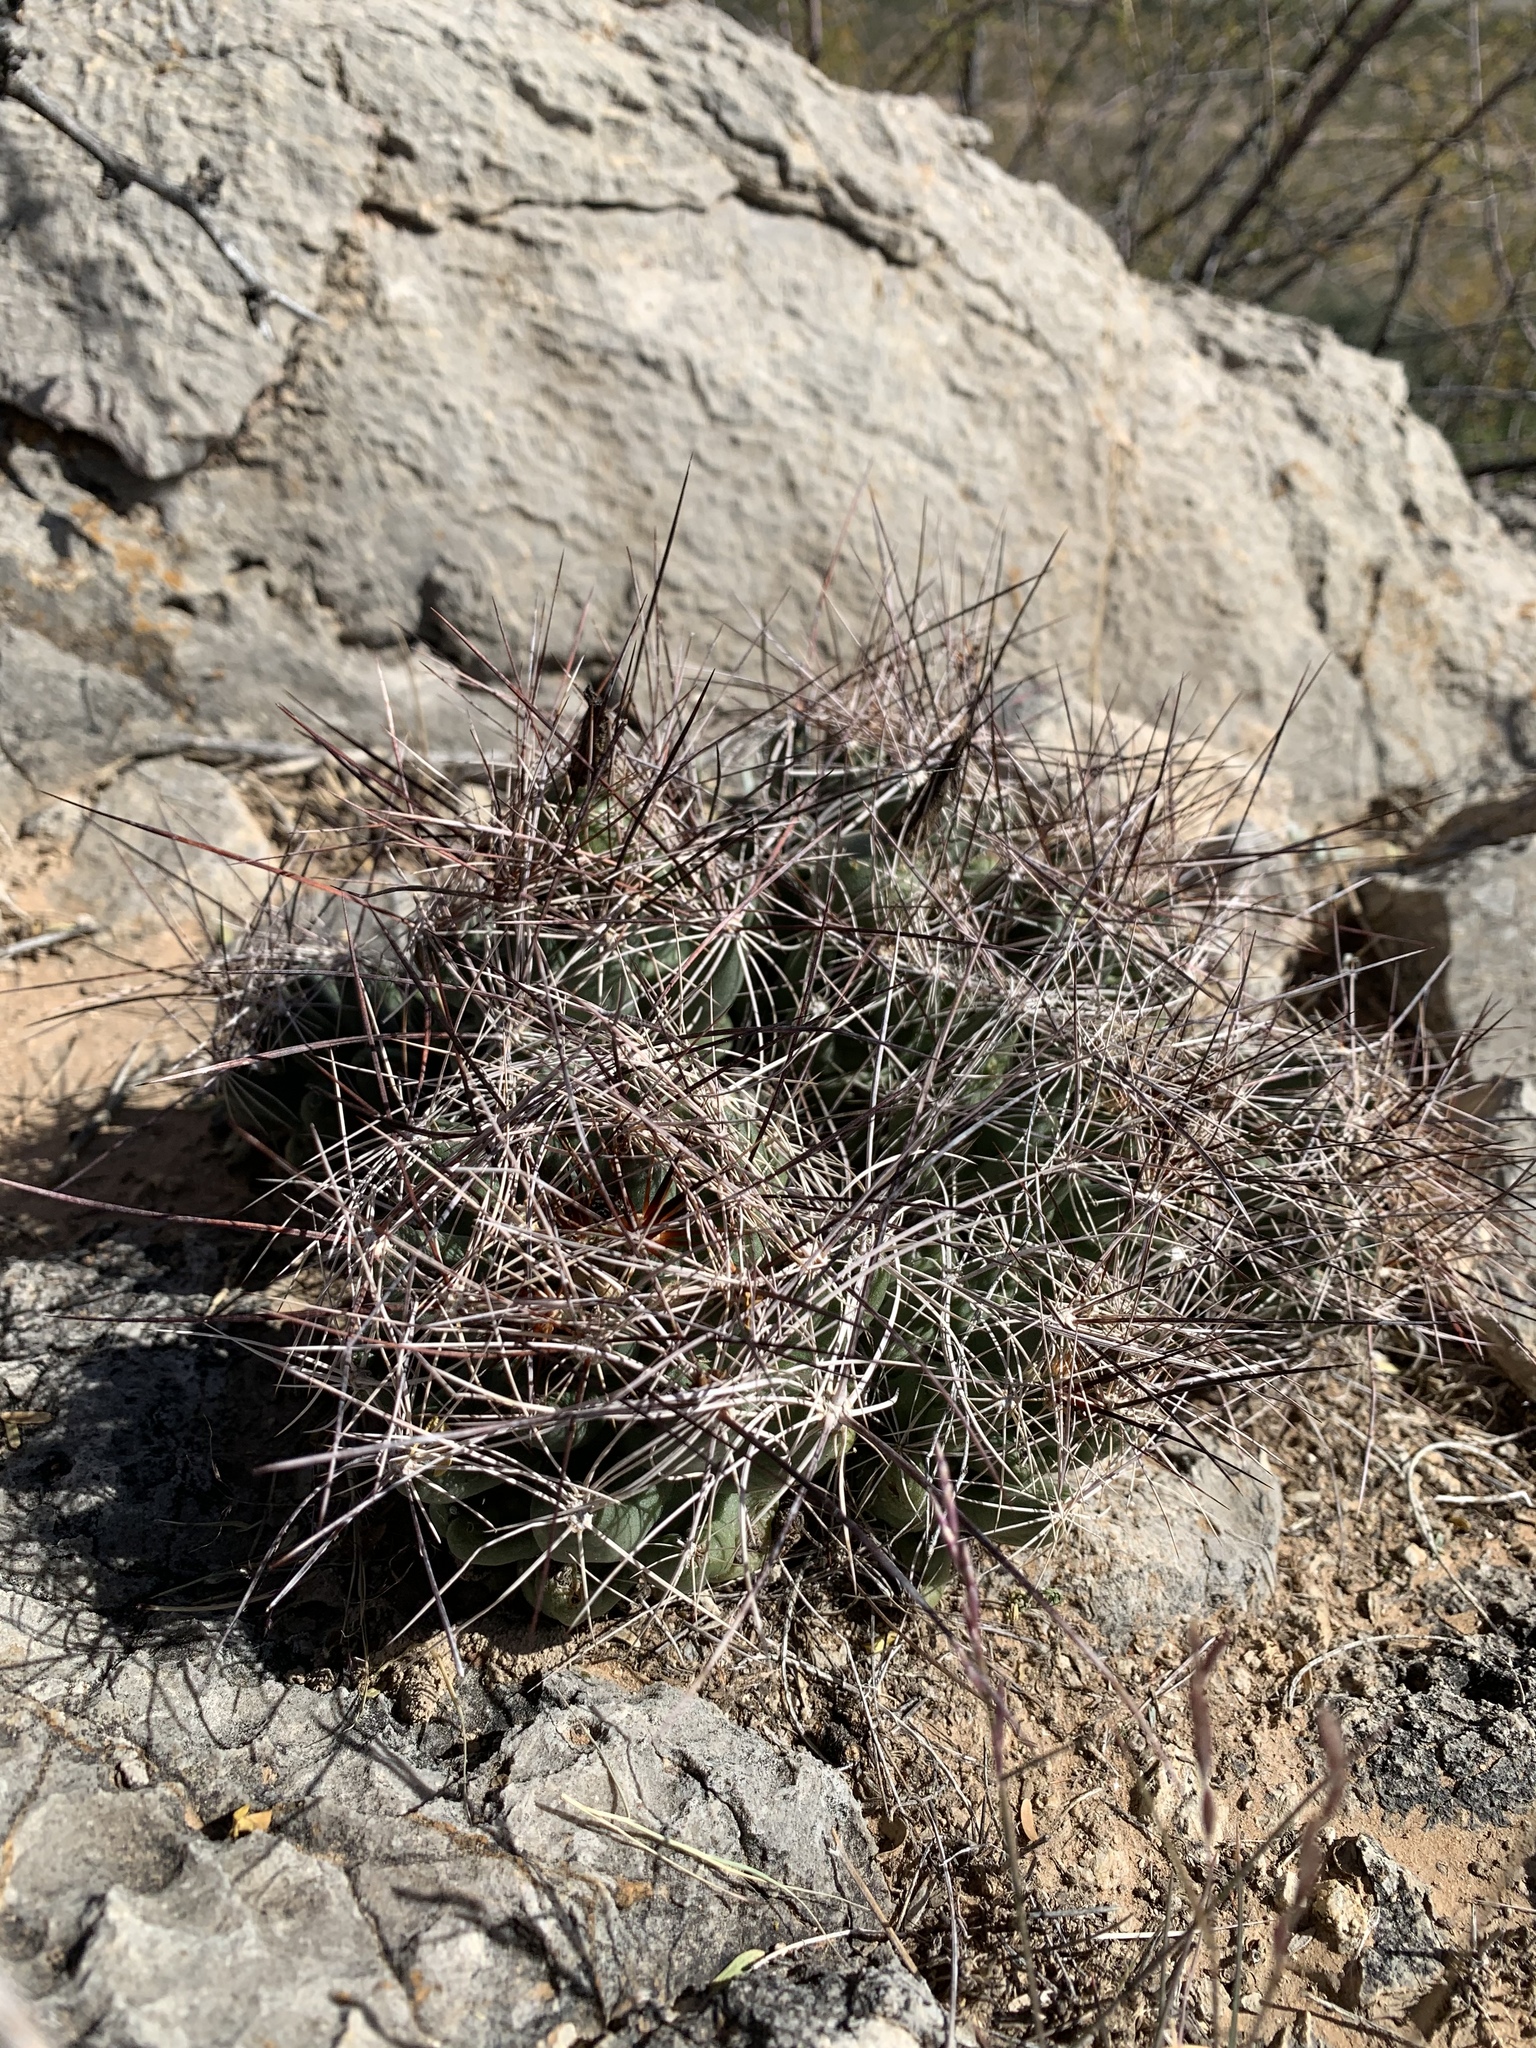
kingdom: Plantae
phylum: Tracheophyta
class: Magnoliopsida
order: Caryophyllales
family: Cactaceae
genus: Coryphantha
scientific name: Coryphantha macromeris
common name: Nipple beehive cactus
